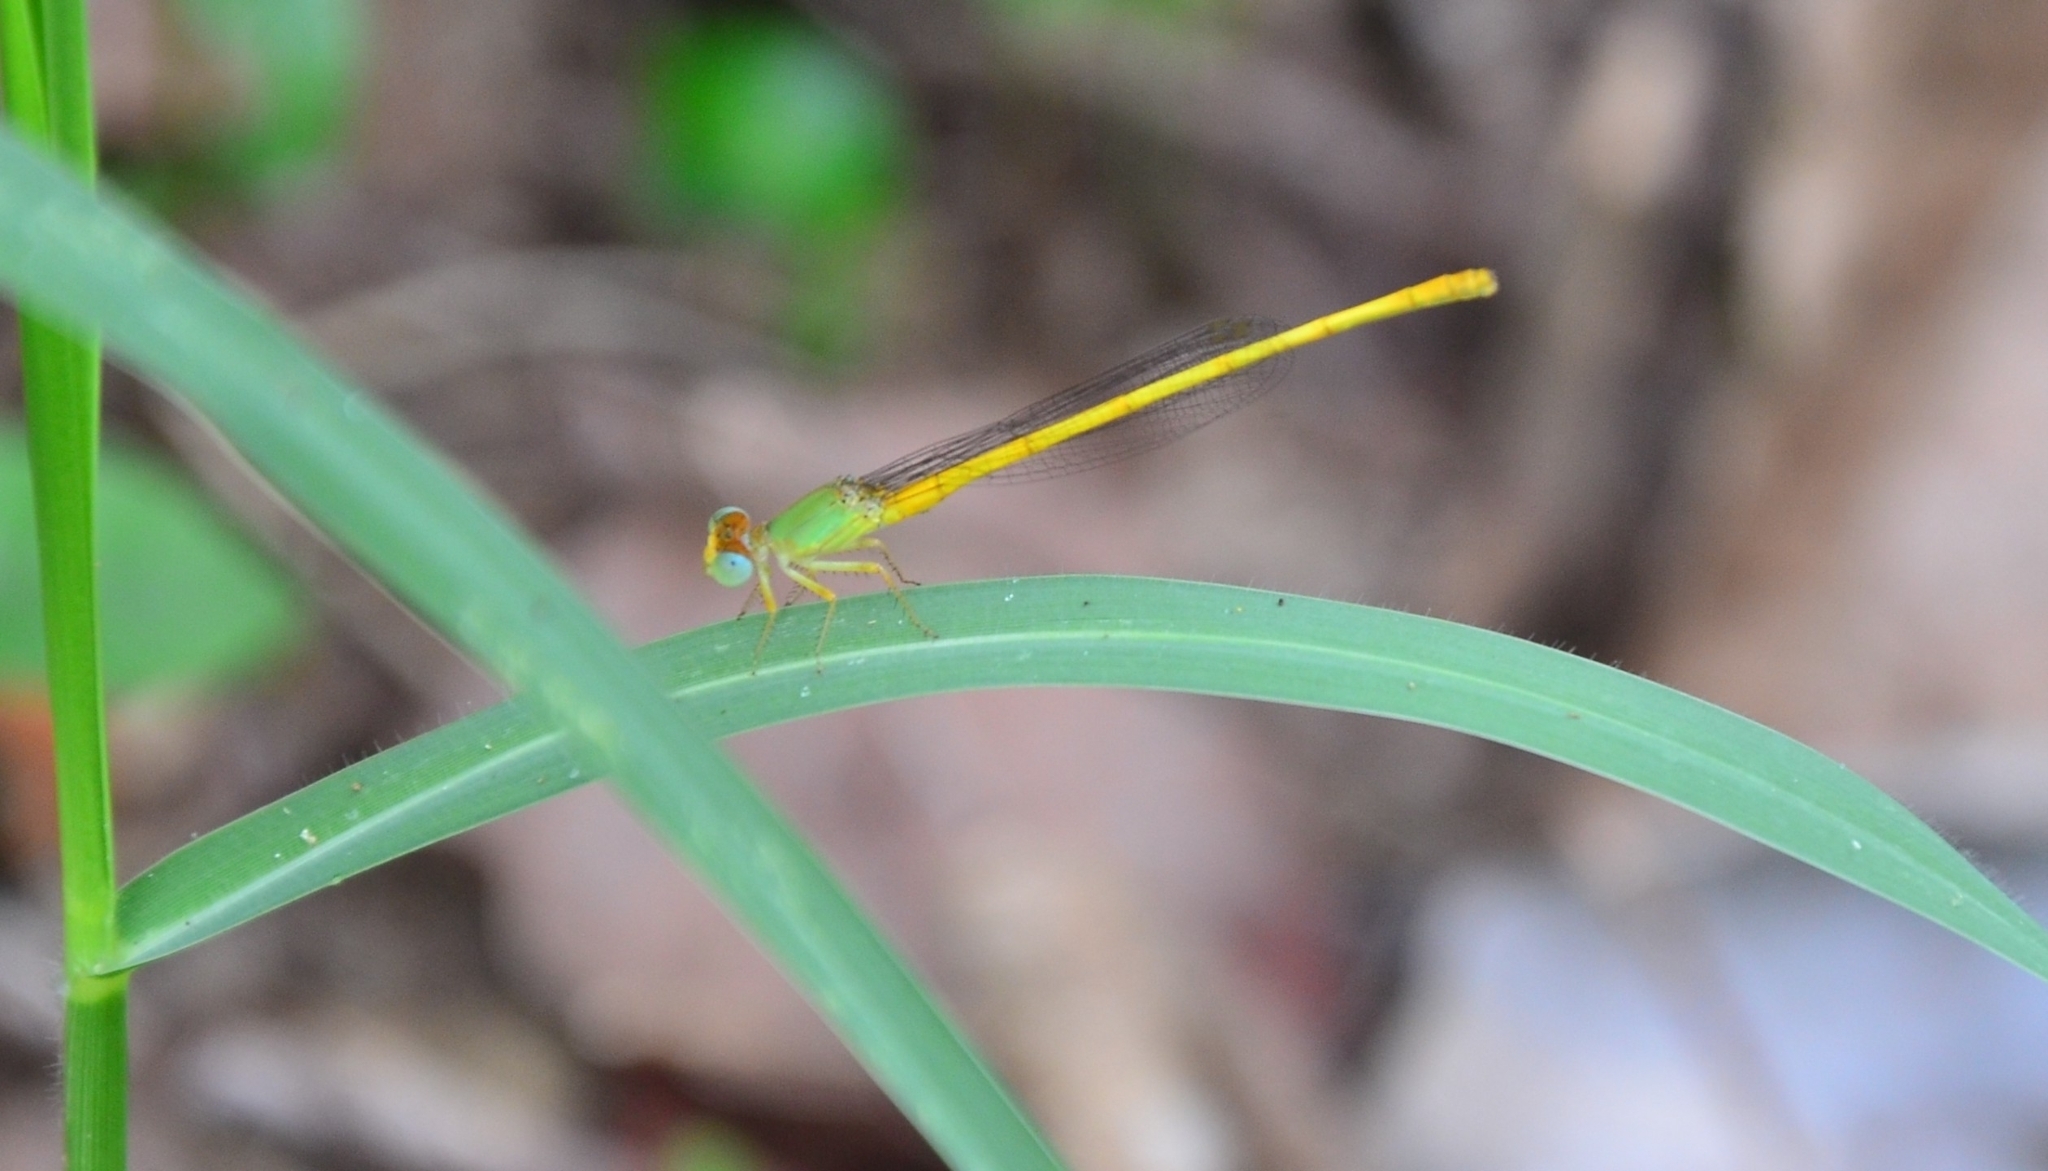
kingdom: Animalia
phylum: Arthropoda
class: Insecta
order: Odonata
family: Coenagrionidae
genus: Ceriagrion
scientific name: Ceriagrion coromandelianum
